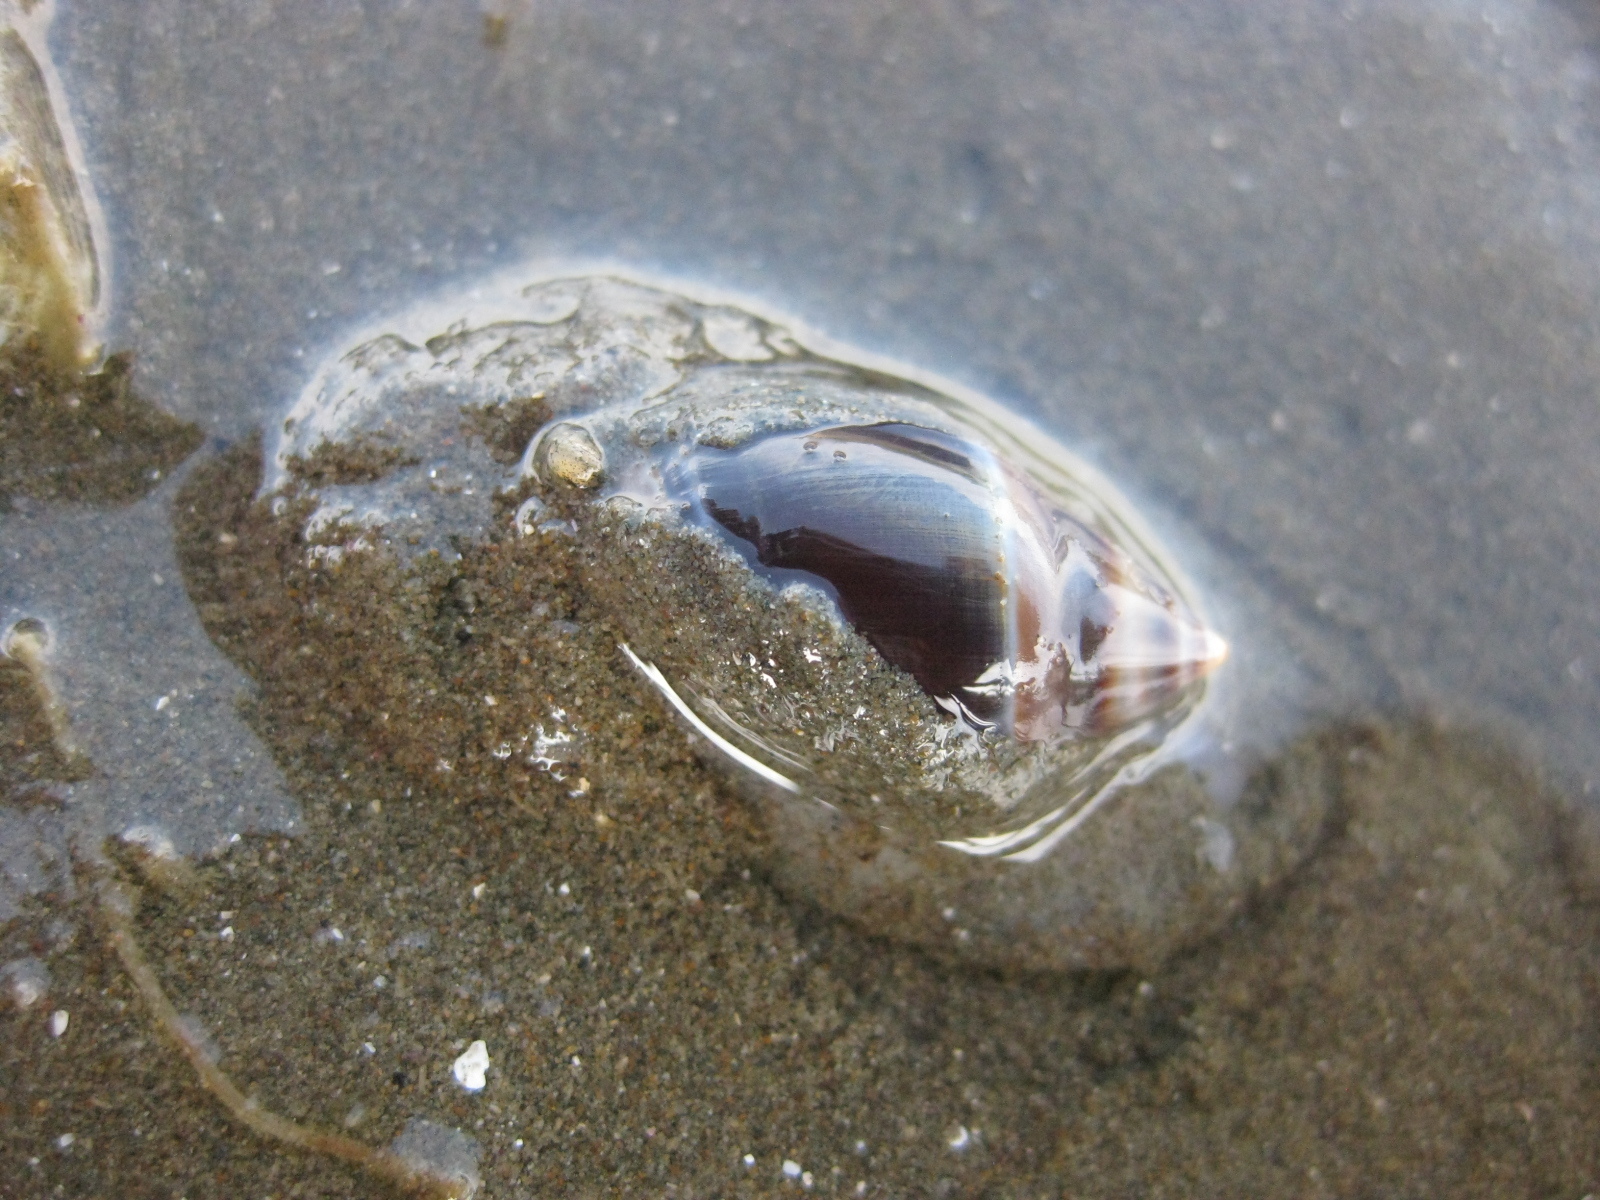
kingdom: Animalia
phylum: Mollusca
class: Gastropoda
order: Neogastropoda
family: Ancillariidae
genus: Amalda
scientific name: Amalda australis
